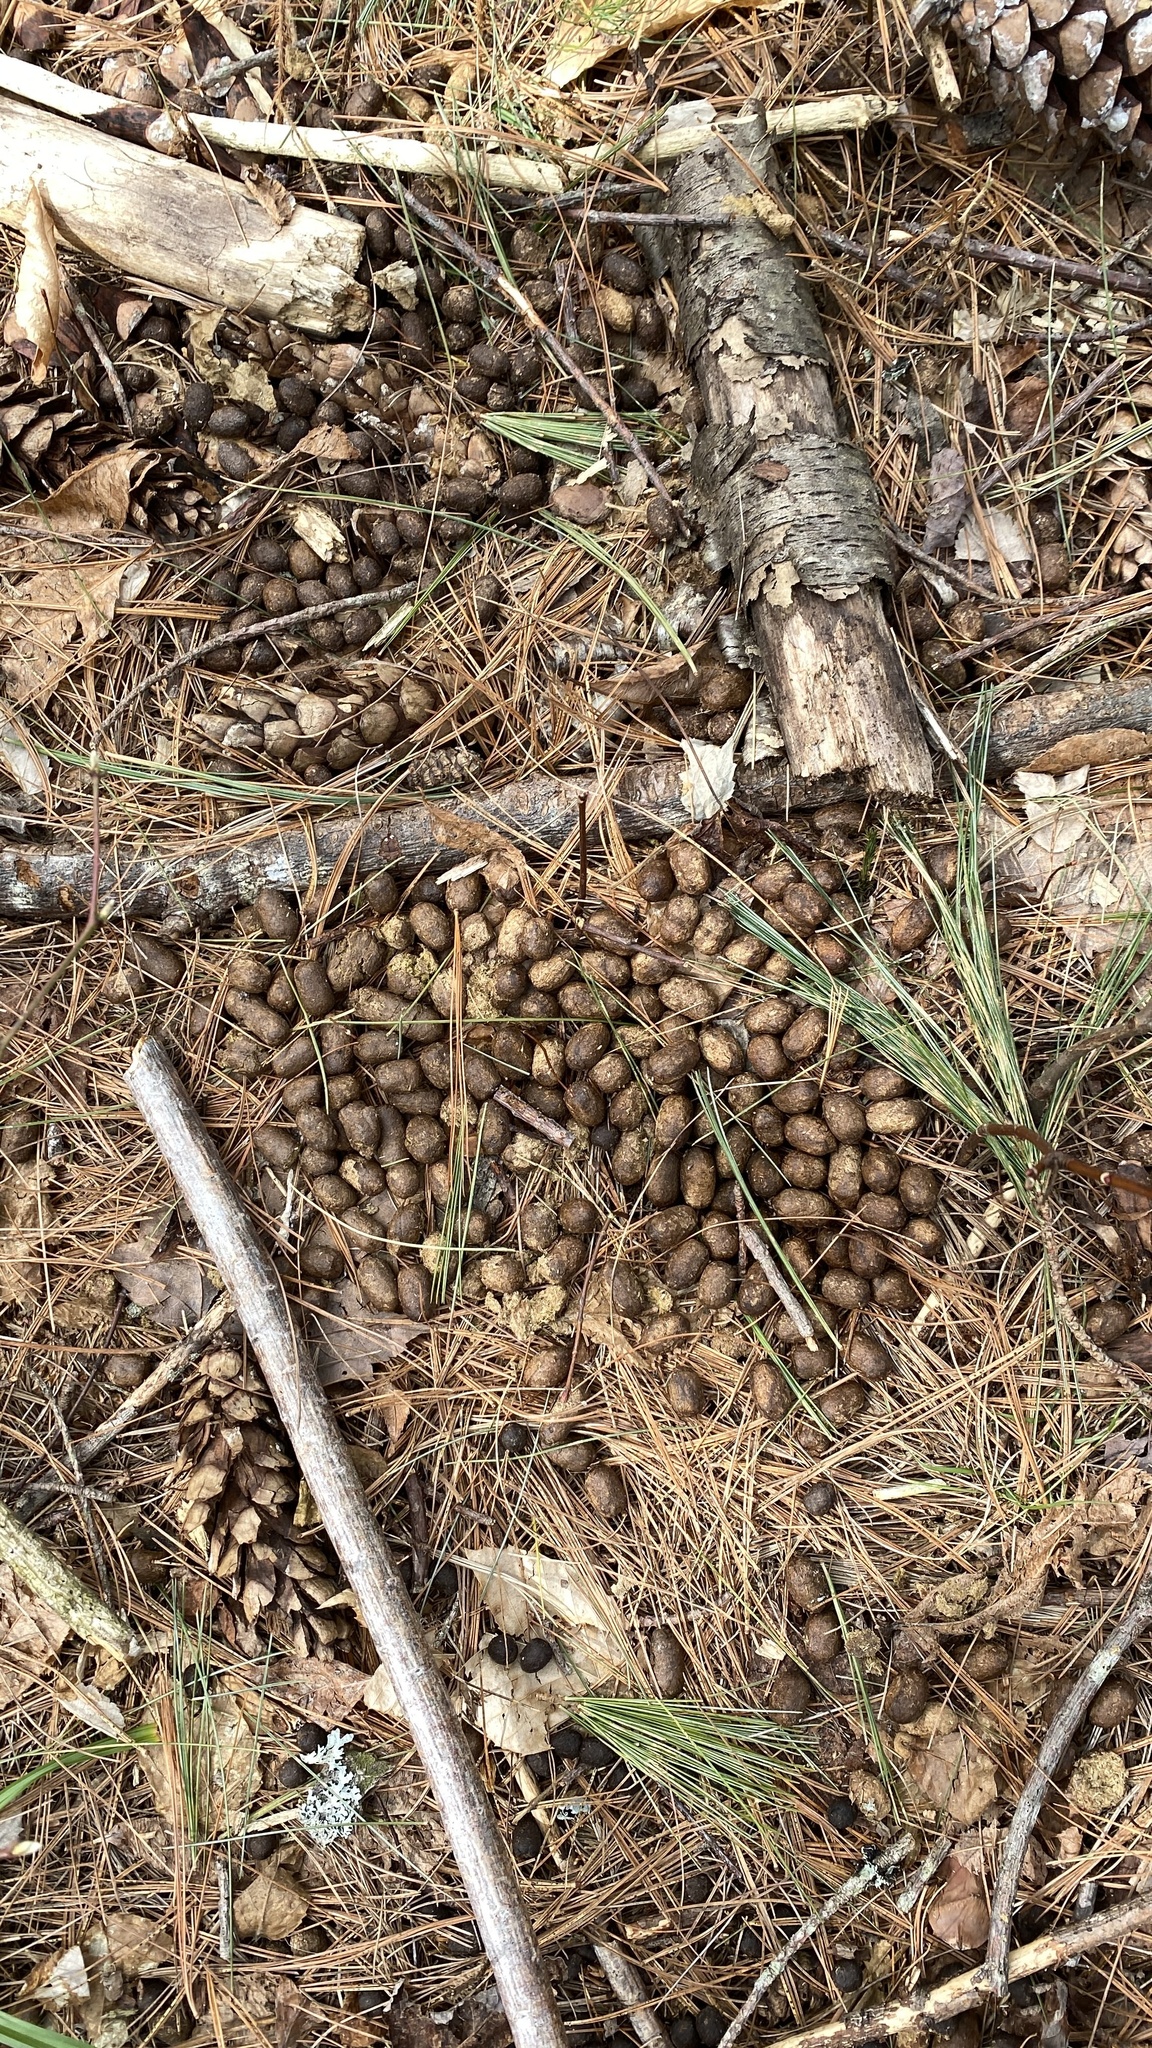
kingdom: Animalia
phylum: Chordata
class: Mammalia
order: Artiodactyla
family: Cervidae
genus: Odocoileus
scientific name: Odocoileus virginianus
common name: White-tailed deer
